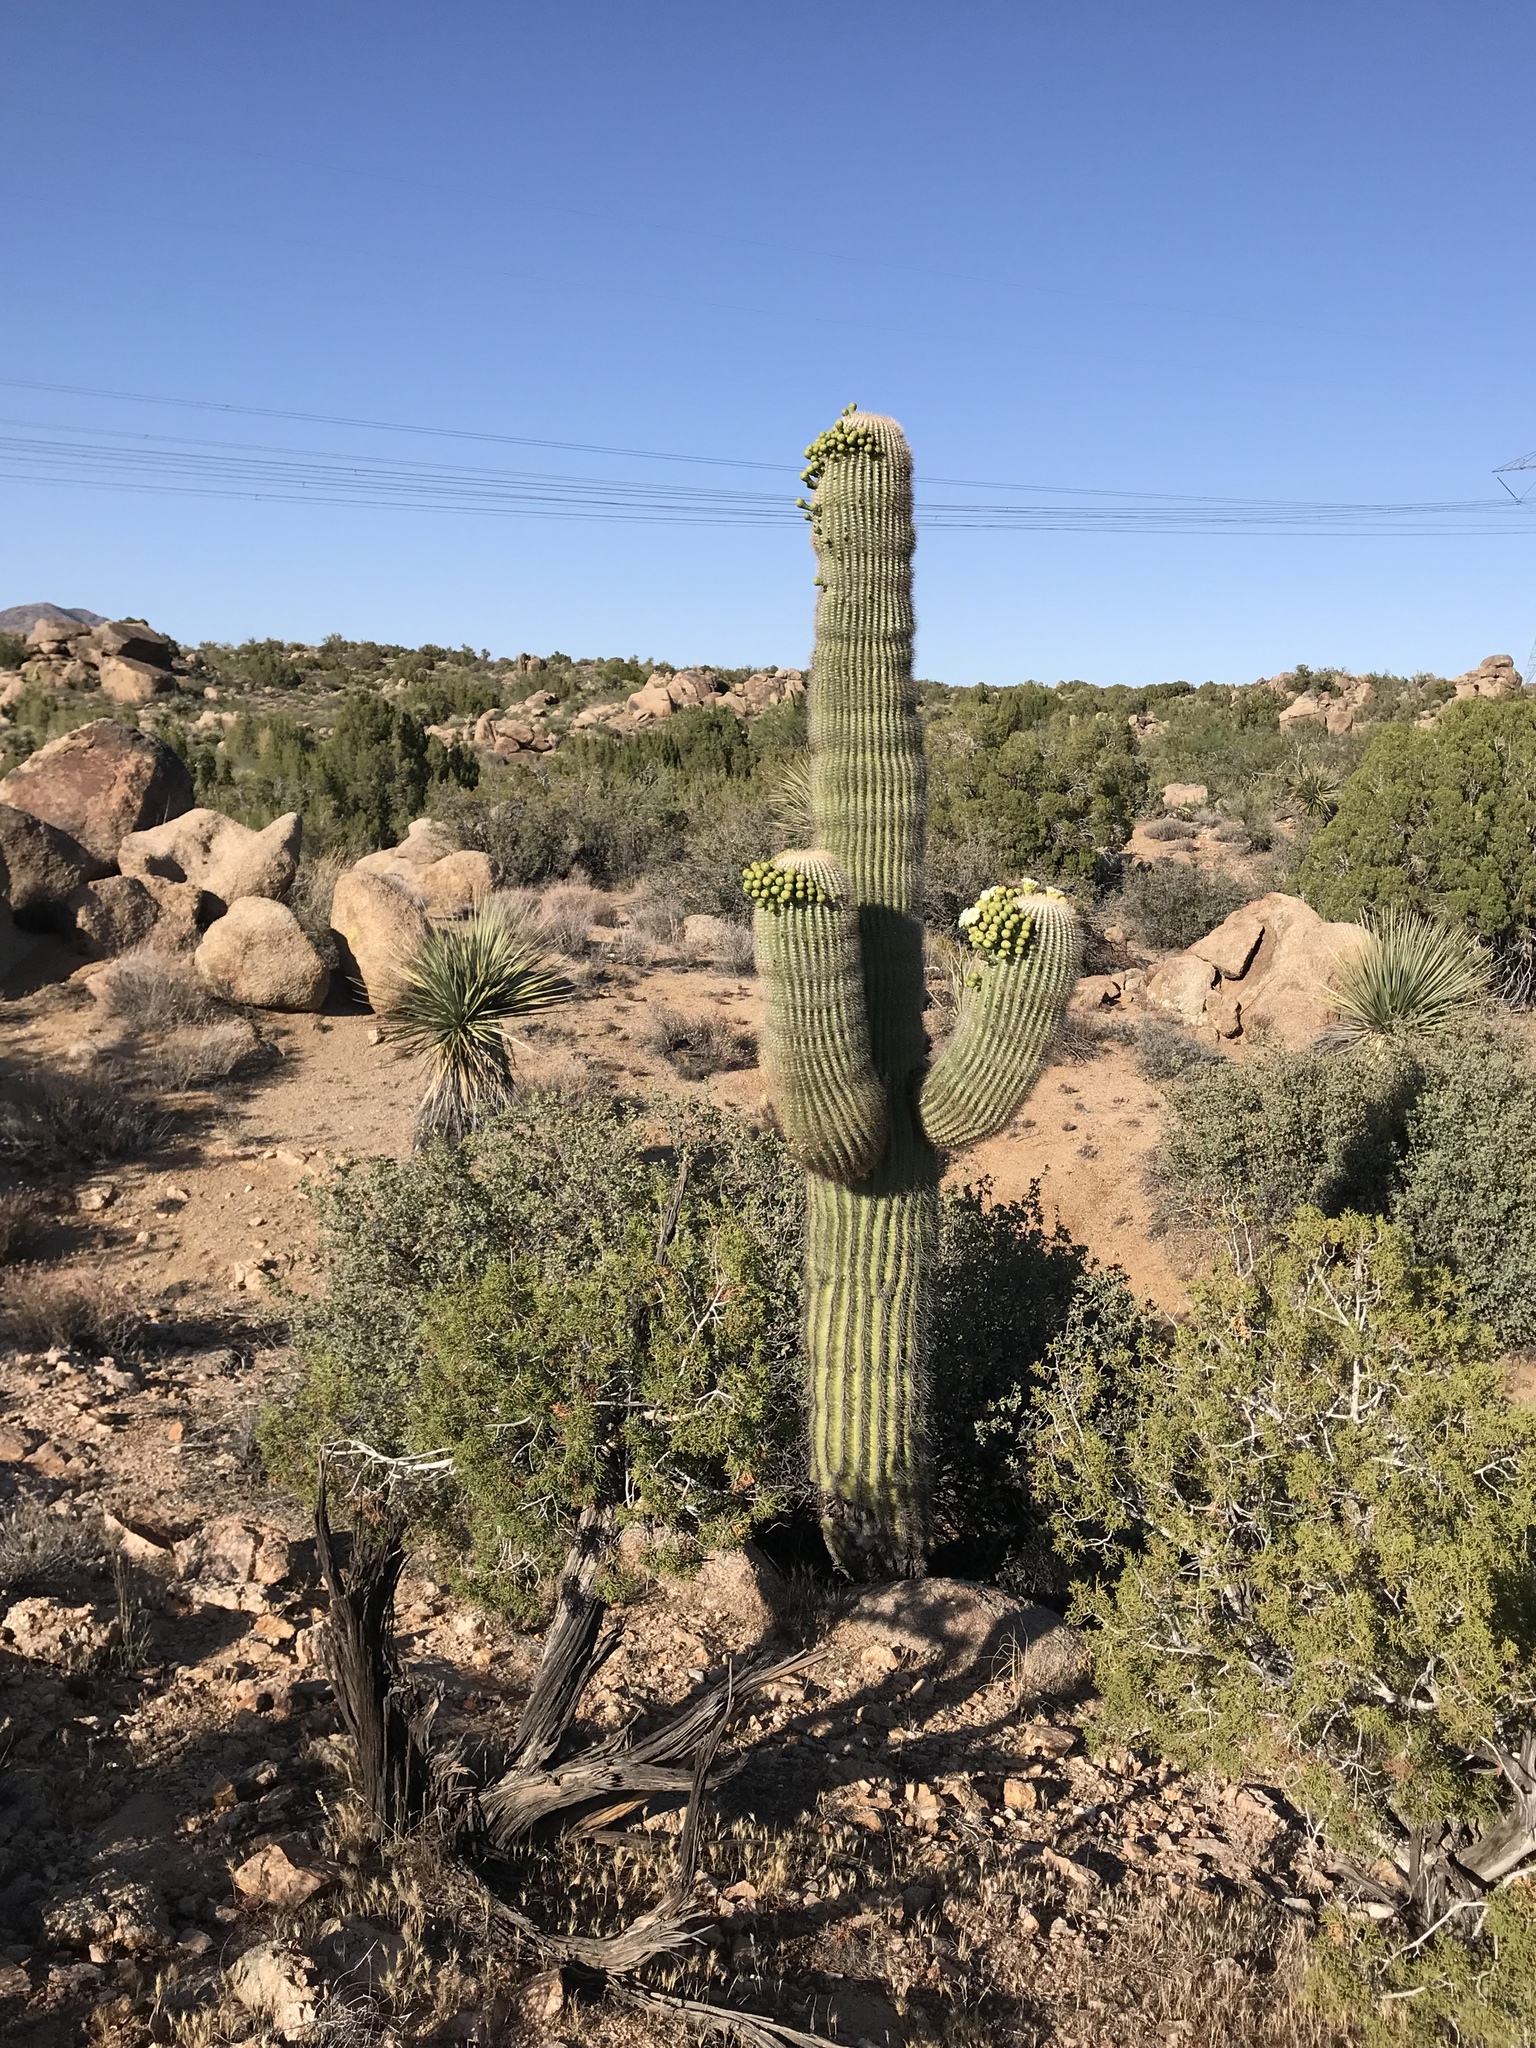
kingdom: Plantae
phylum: Tracheophyta
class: Magnoliopsida
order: Caryophyllales
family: Cactaceae
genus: Carnegiea
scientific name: Carnegiea gigantea
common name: Saguaro
